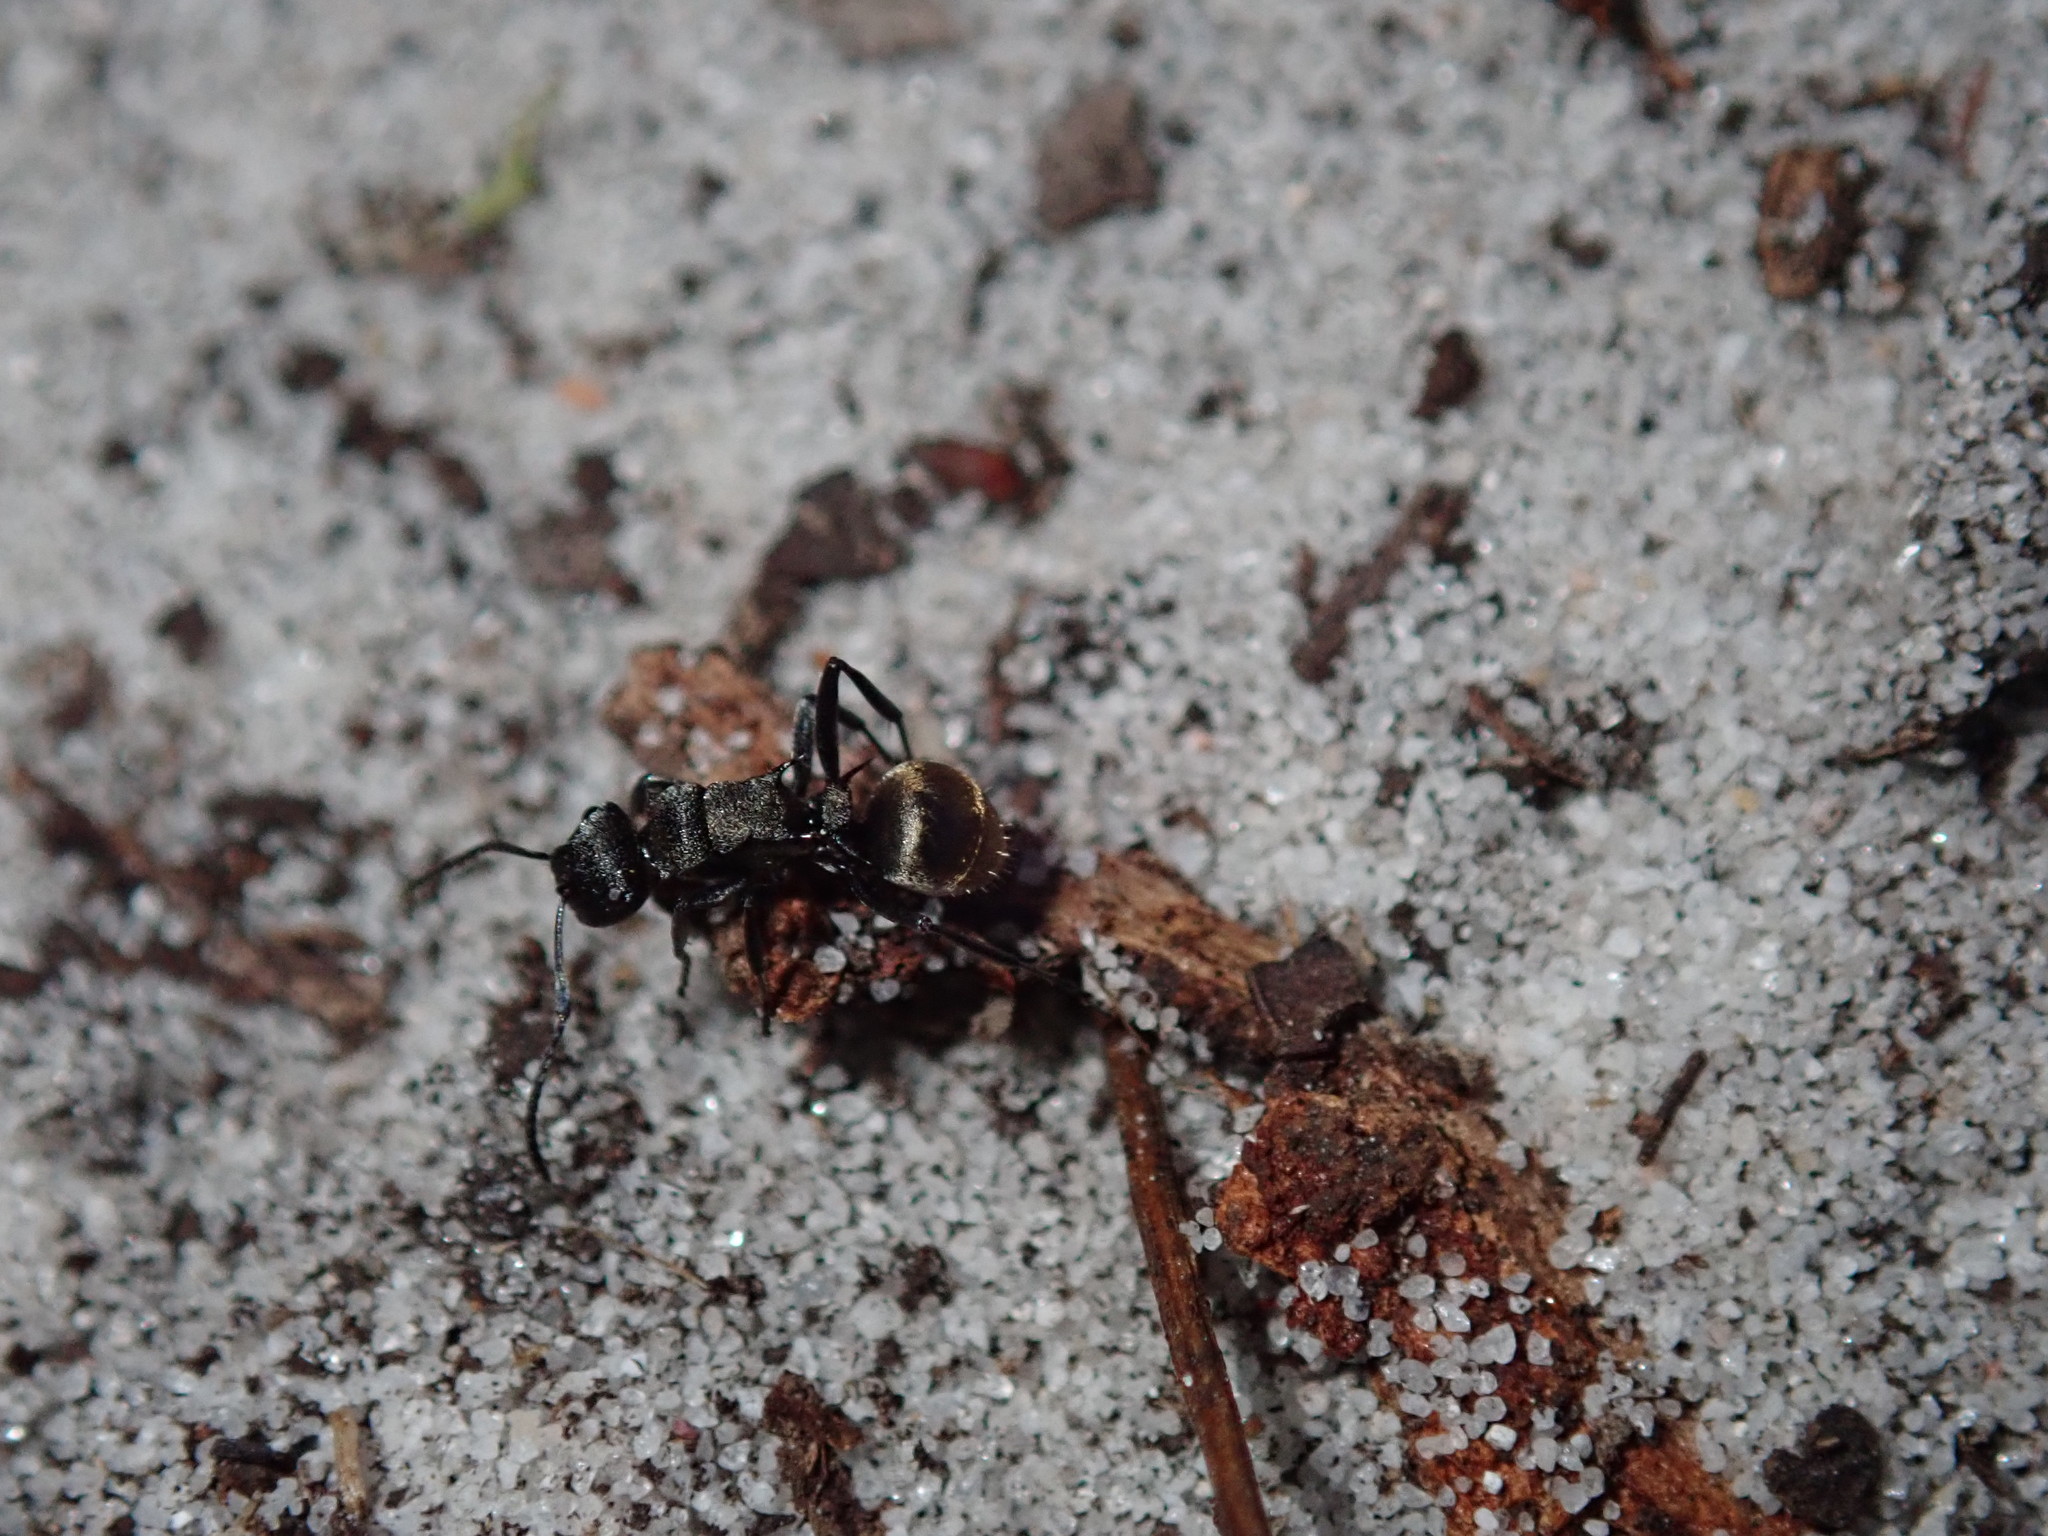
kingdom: Animalia
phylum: Arthropoda
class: Insecta
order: Hymenoptera
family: Formicidae
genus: Polyrhachis
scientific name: Polyrhachis mjobergi
